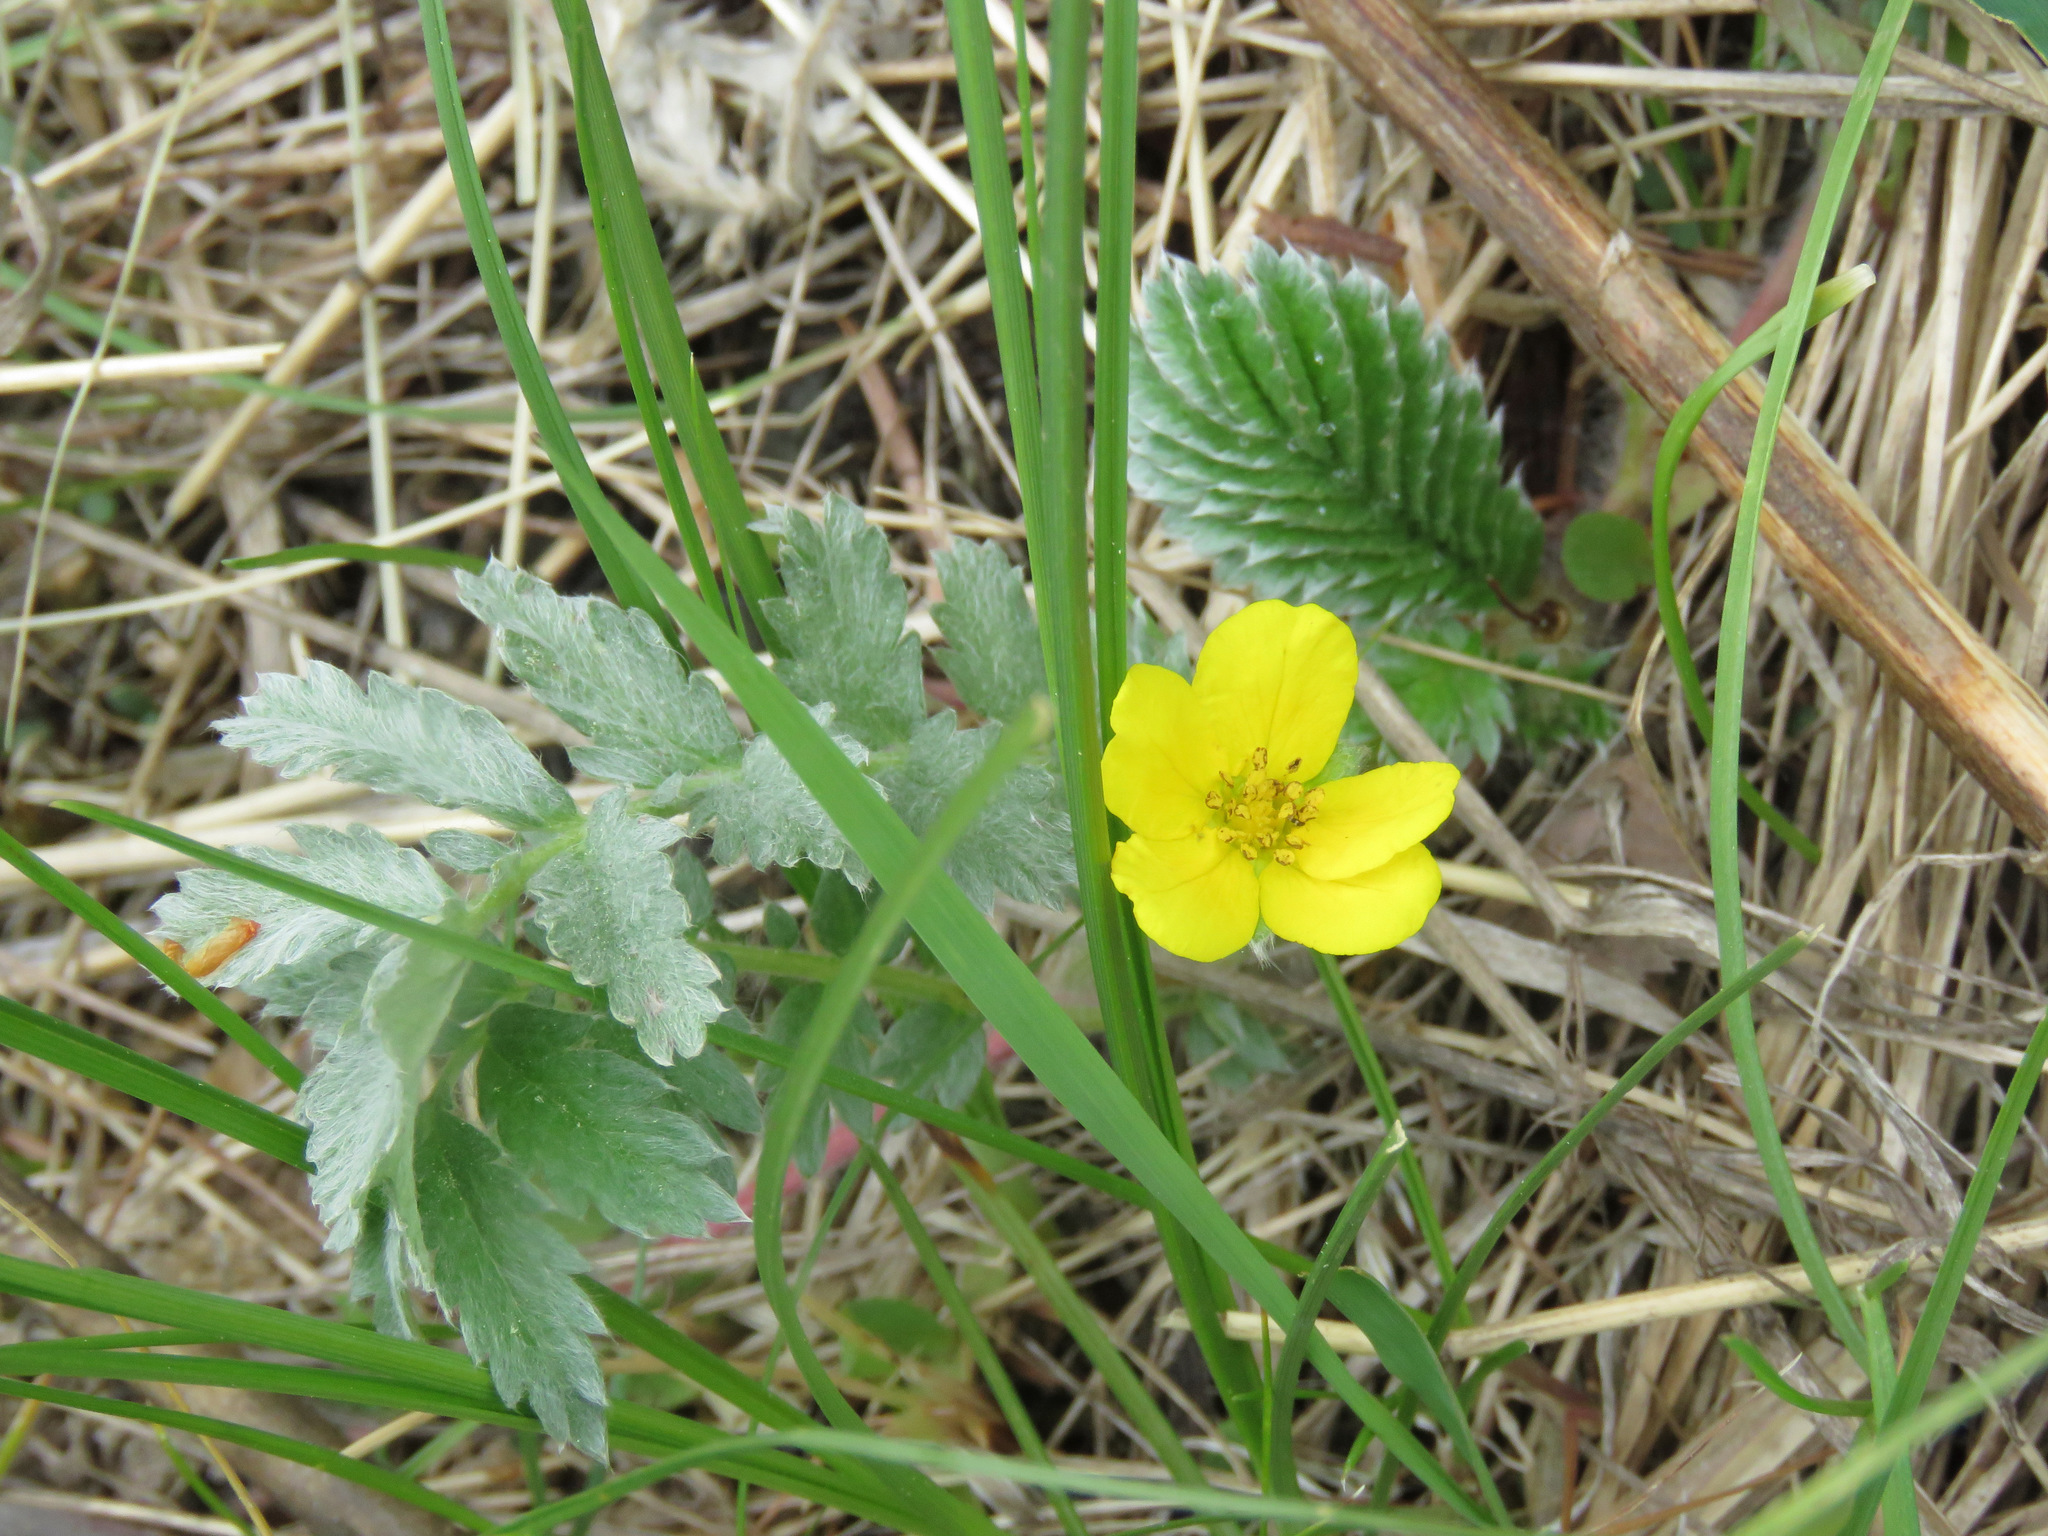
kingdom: Plantae
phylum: Tracheophyta
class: Magnoliopsida
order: Rosales
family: Rosaceae
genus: Argentina
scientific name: Argentina anserina
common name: Common silverweed
